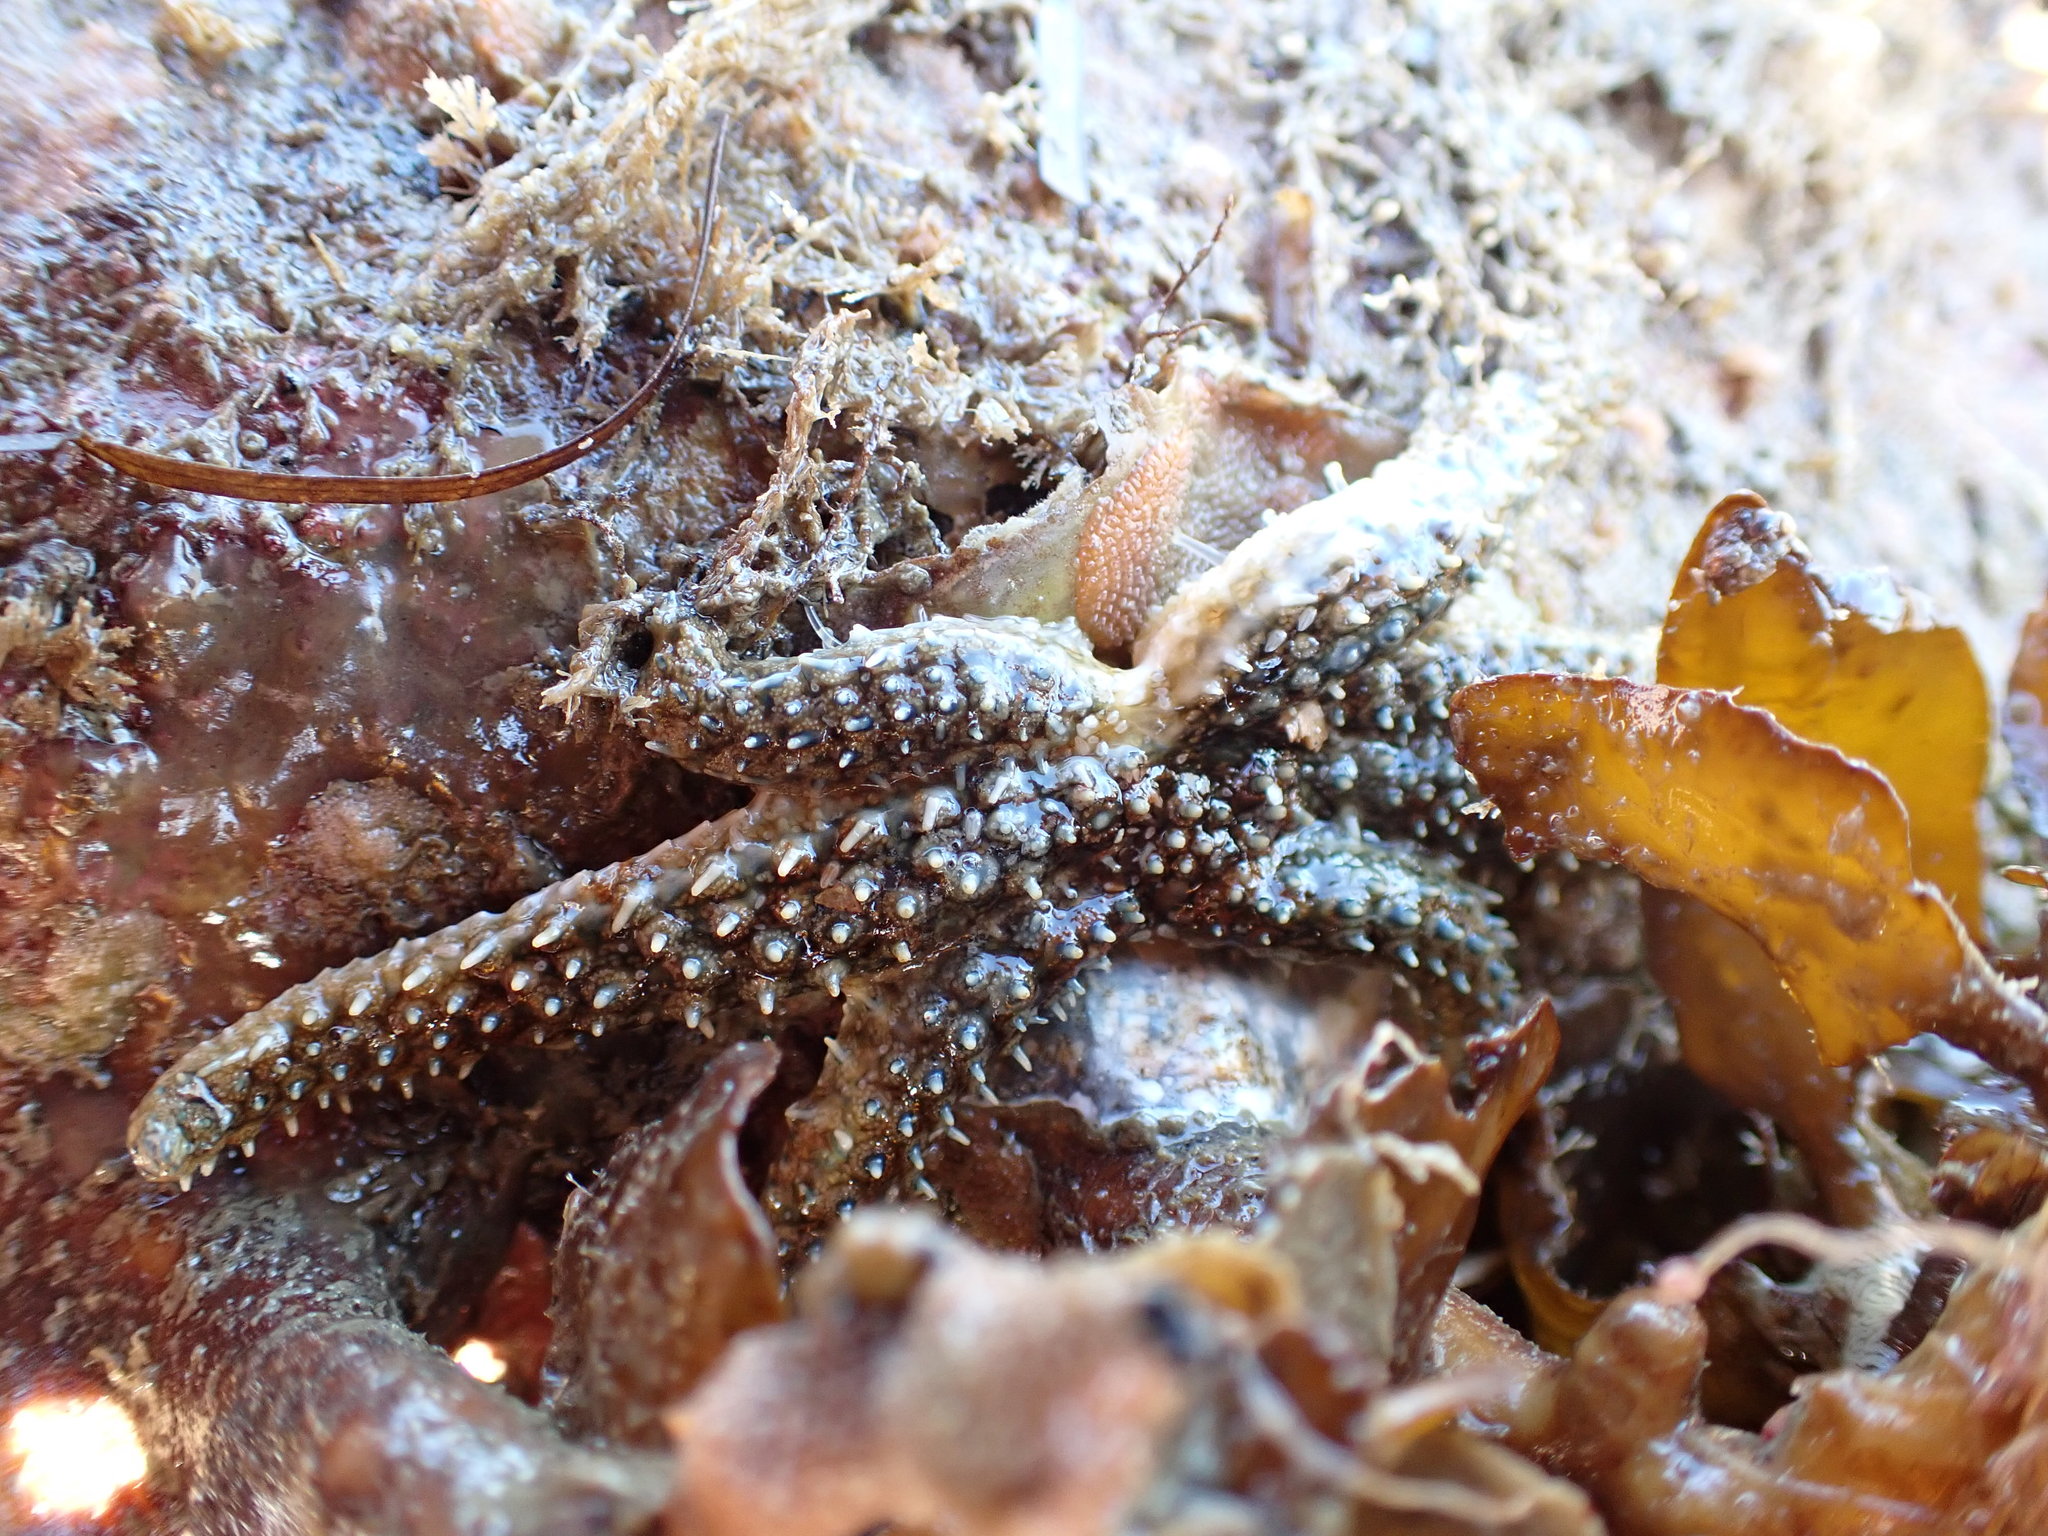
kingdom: Animalia
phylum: Echinodermata
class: Asteroidea
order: Forcipulatida
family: Asteriidae
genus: Coscinasterias
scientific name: Coscinasterias muricata
